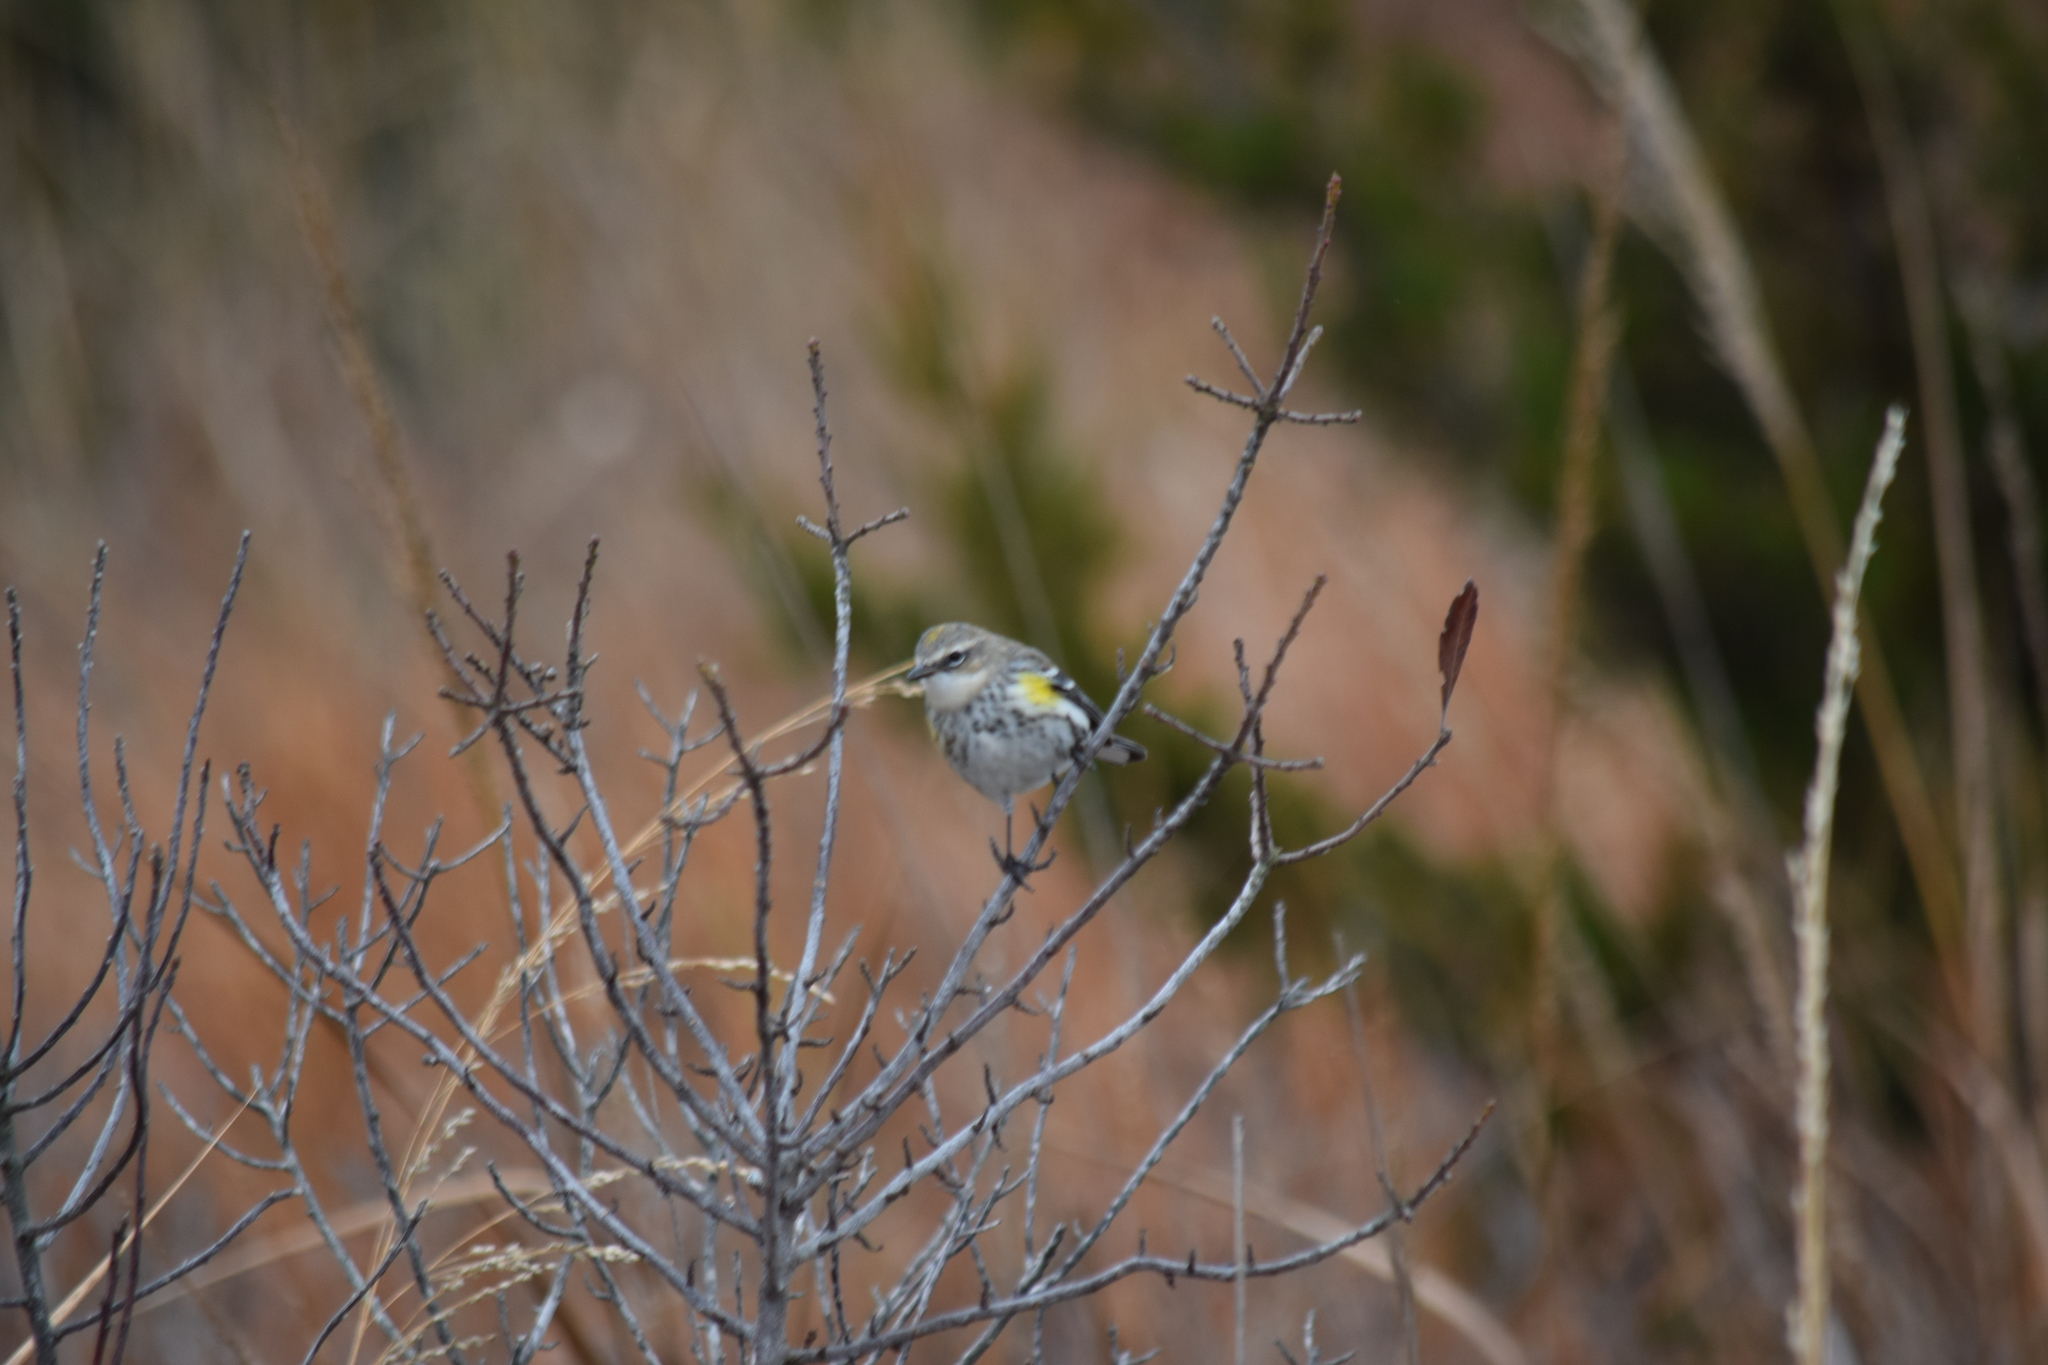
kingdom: Animalia
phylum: Chordata
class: Aves
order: Passeriformes
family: Parulidae
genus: Setophaga
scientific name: Setophaga coronata
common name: Myrtle warbler
